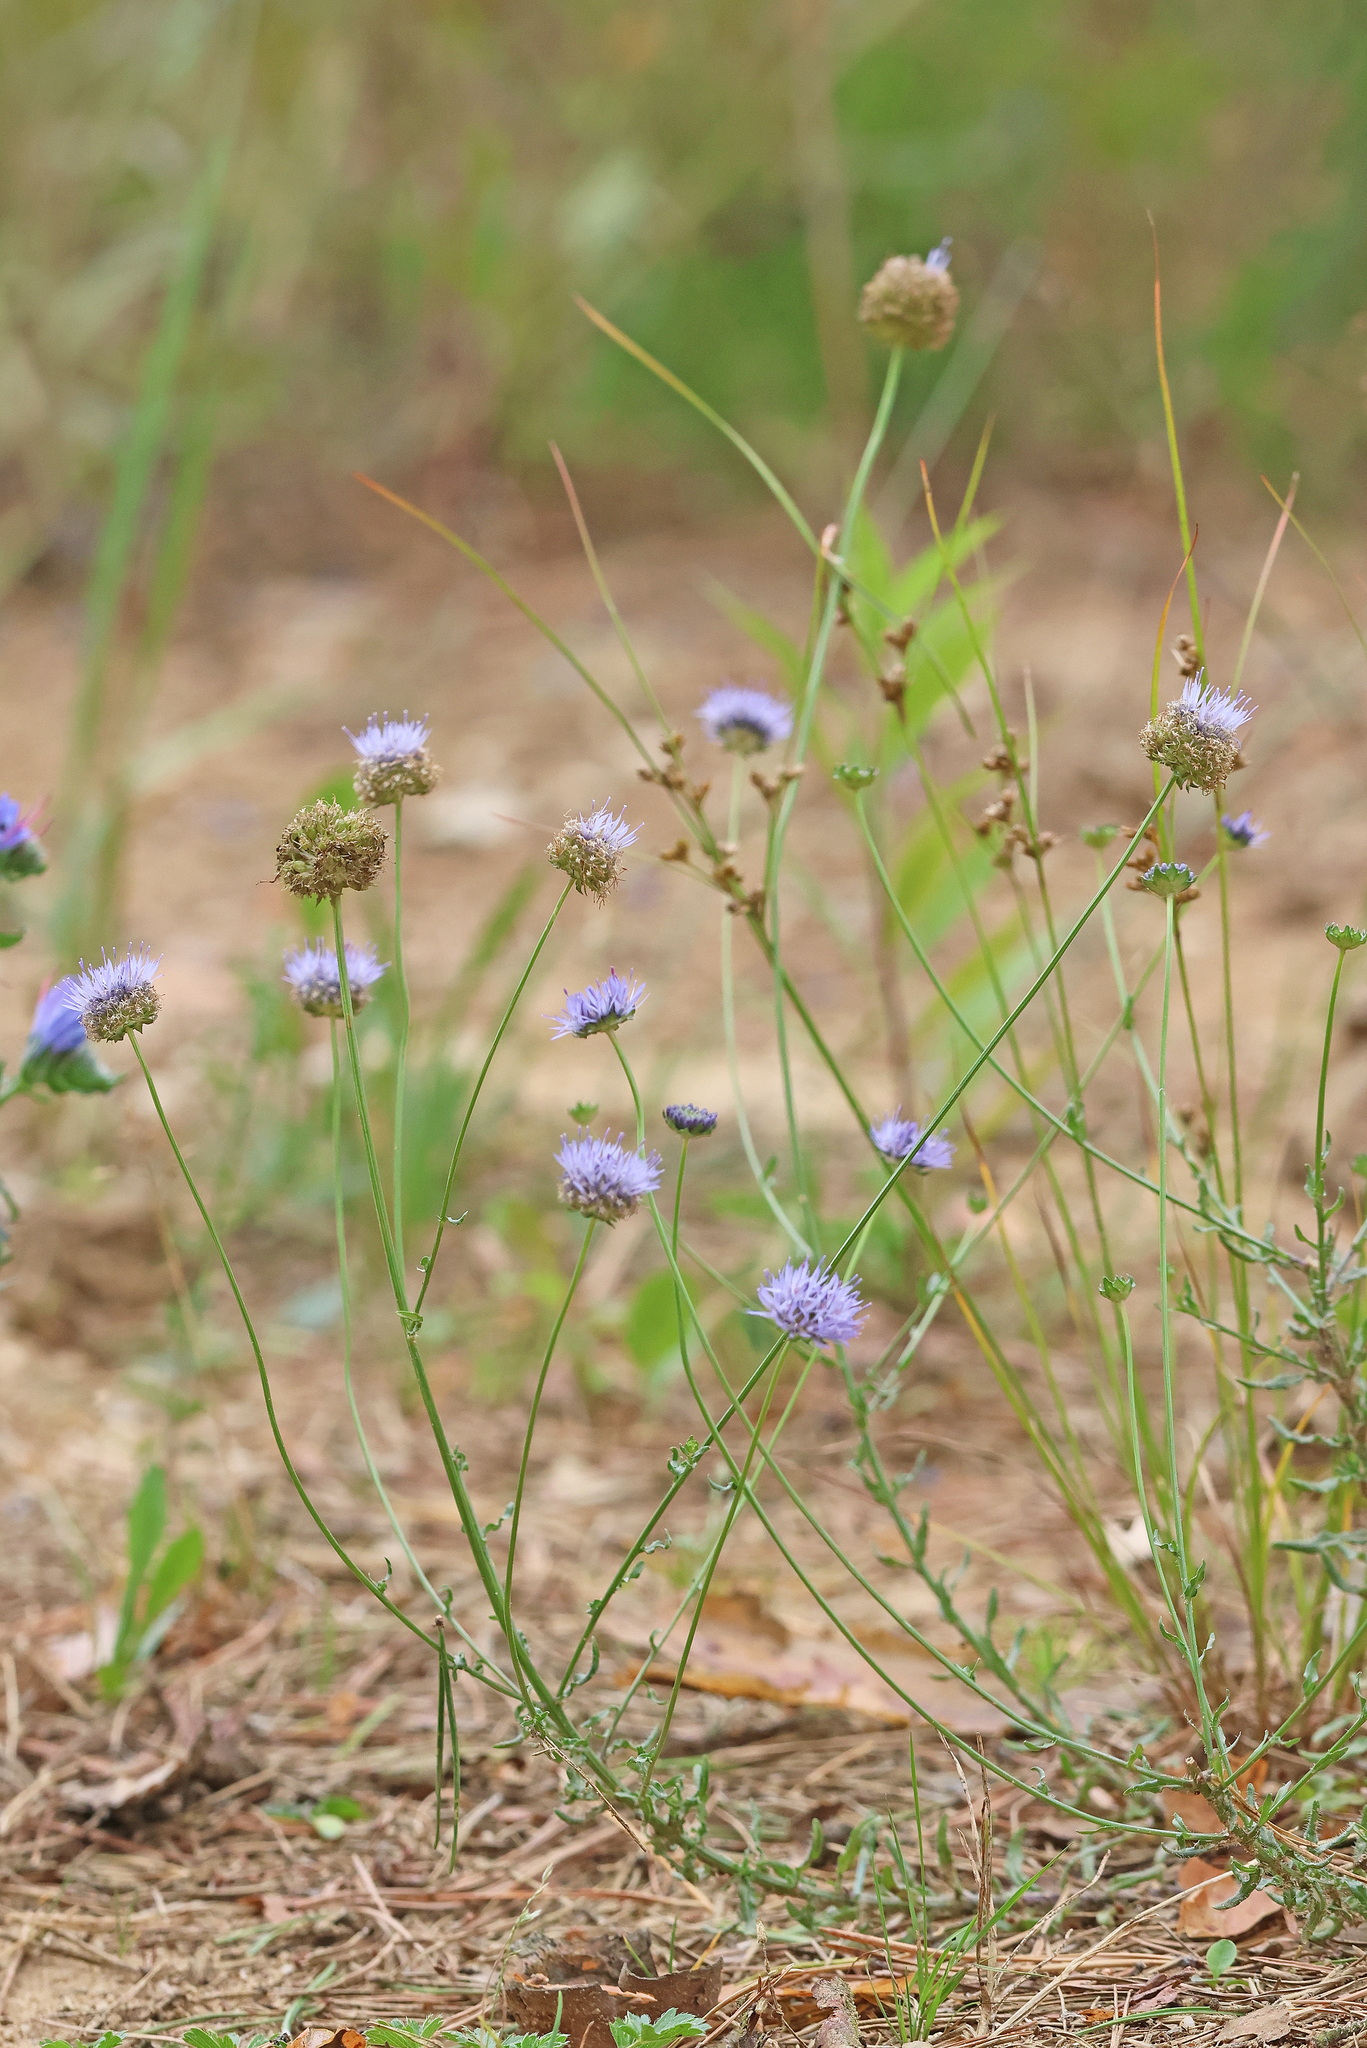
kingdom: Plantae
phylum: Tracheophyta
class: Magnoliopsida
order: Asterales
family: Campanulaceae
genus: Jasione
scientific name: Jasione montana
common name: Sheep's-bit
